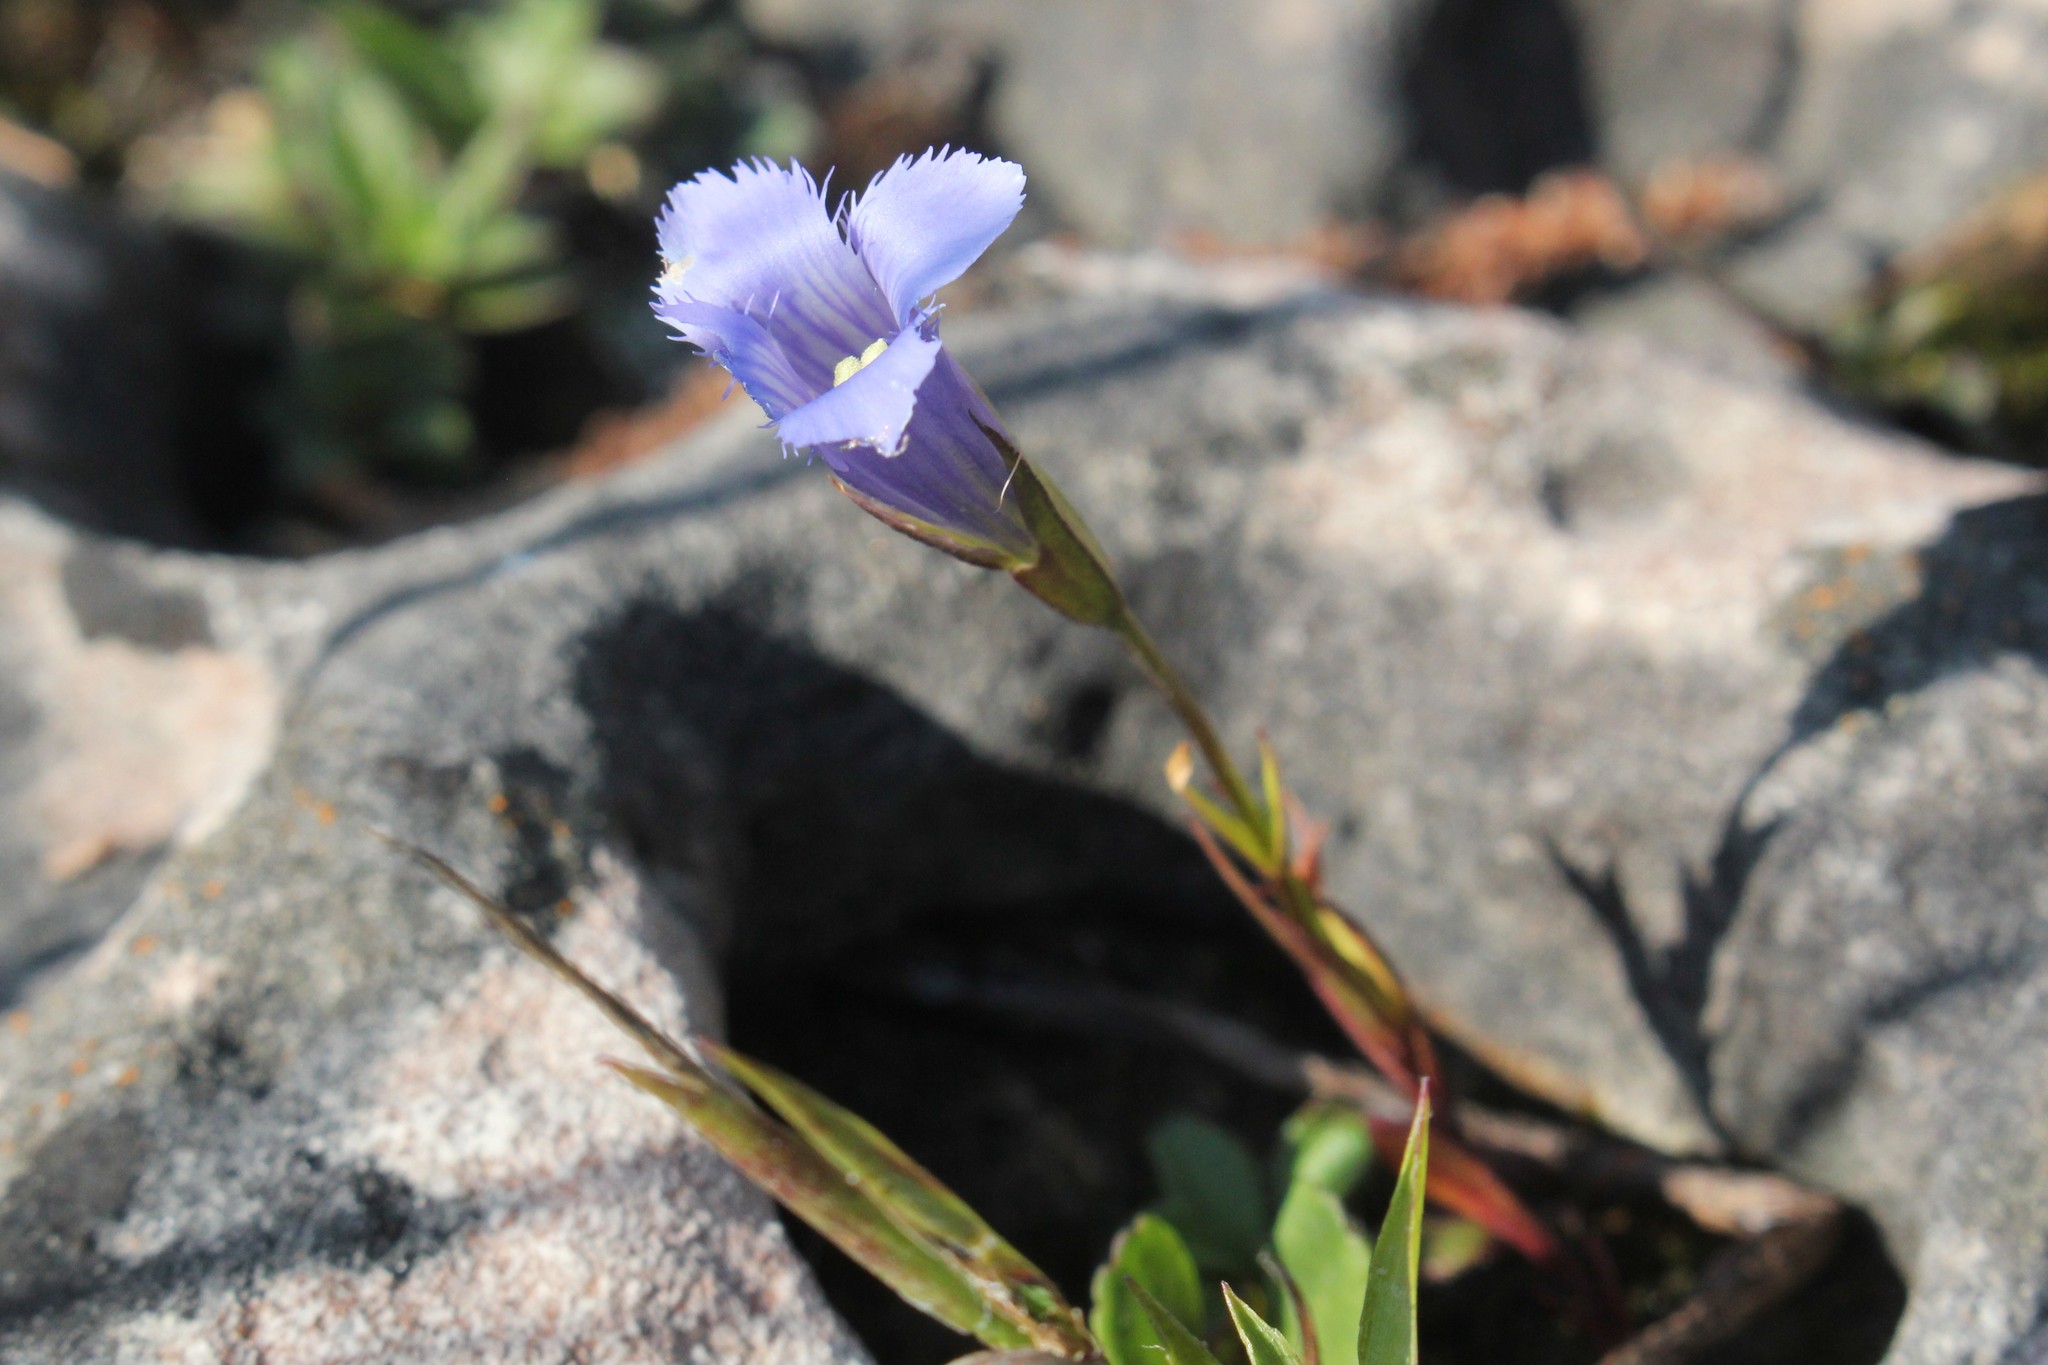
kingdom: Plantae
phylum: Tracheophyta
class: Magnoliopsida
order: Gentianales
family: Gentianaceae
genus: Gentianopsis
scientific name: Gentianopsis virgata
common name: Lesser fringed-gentian
